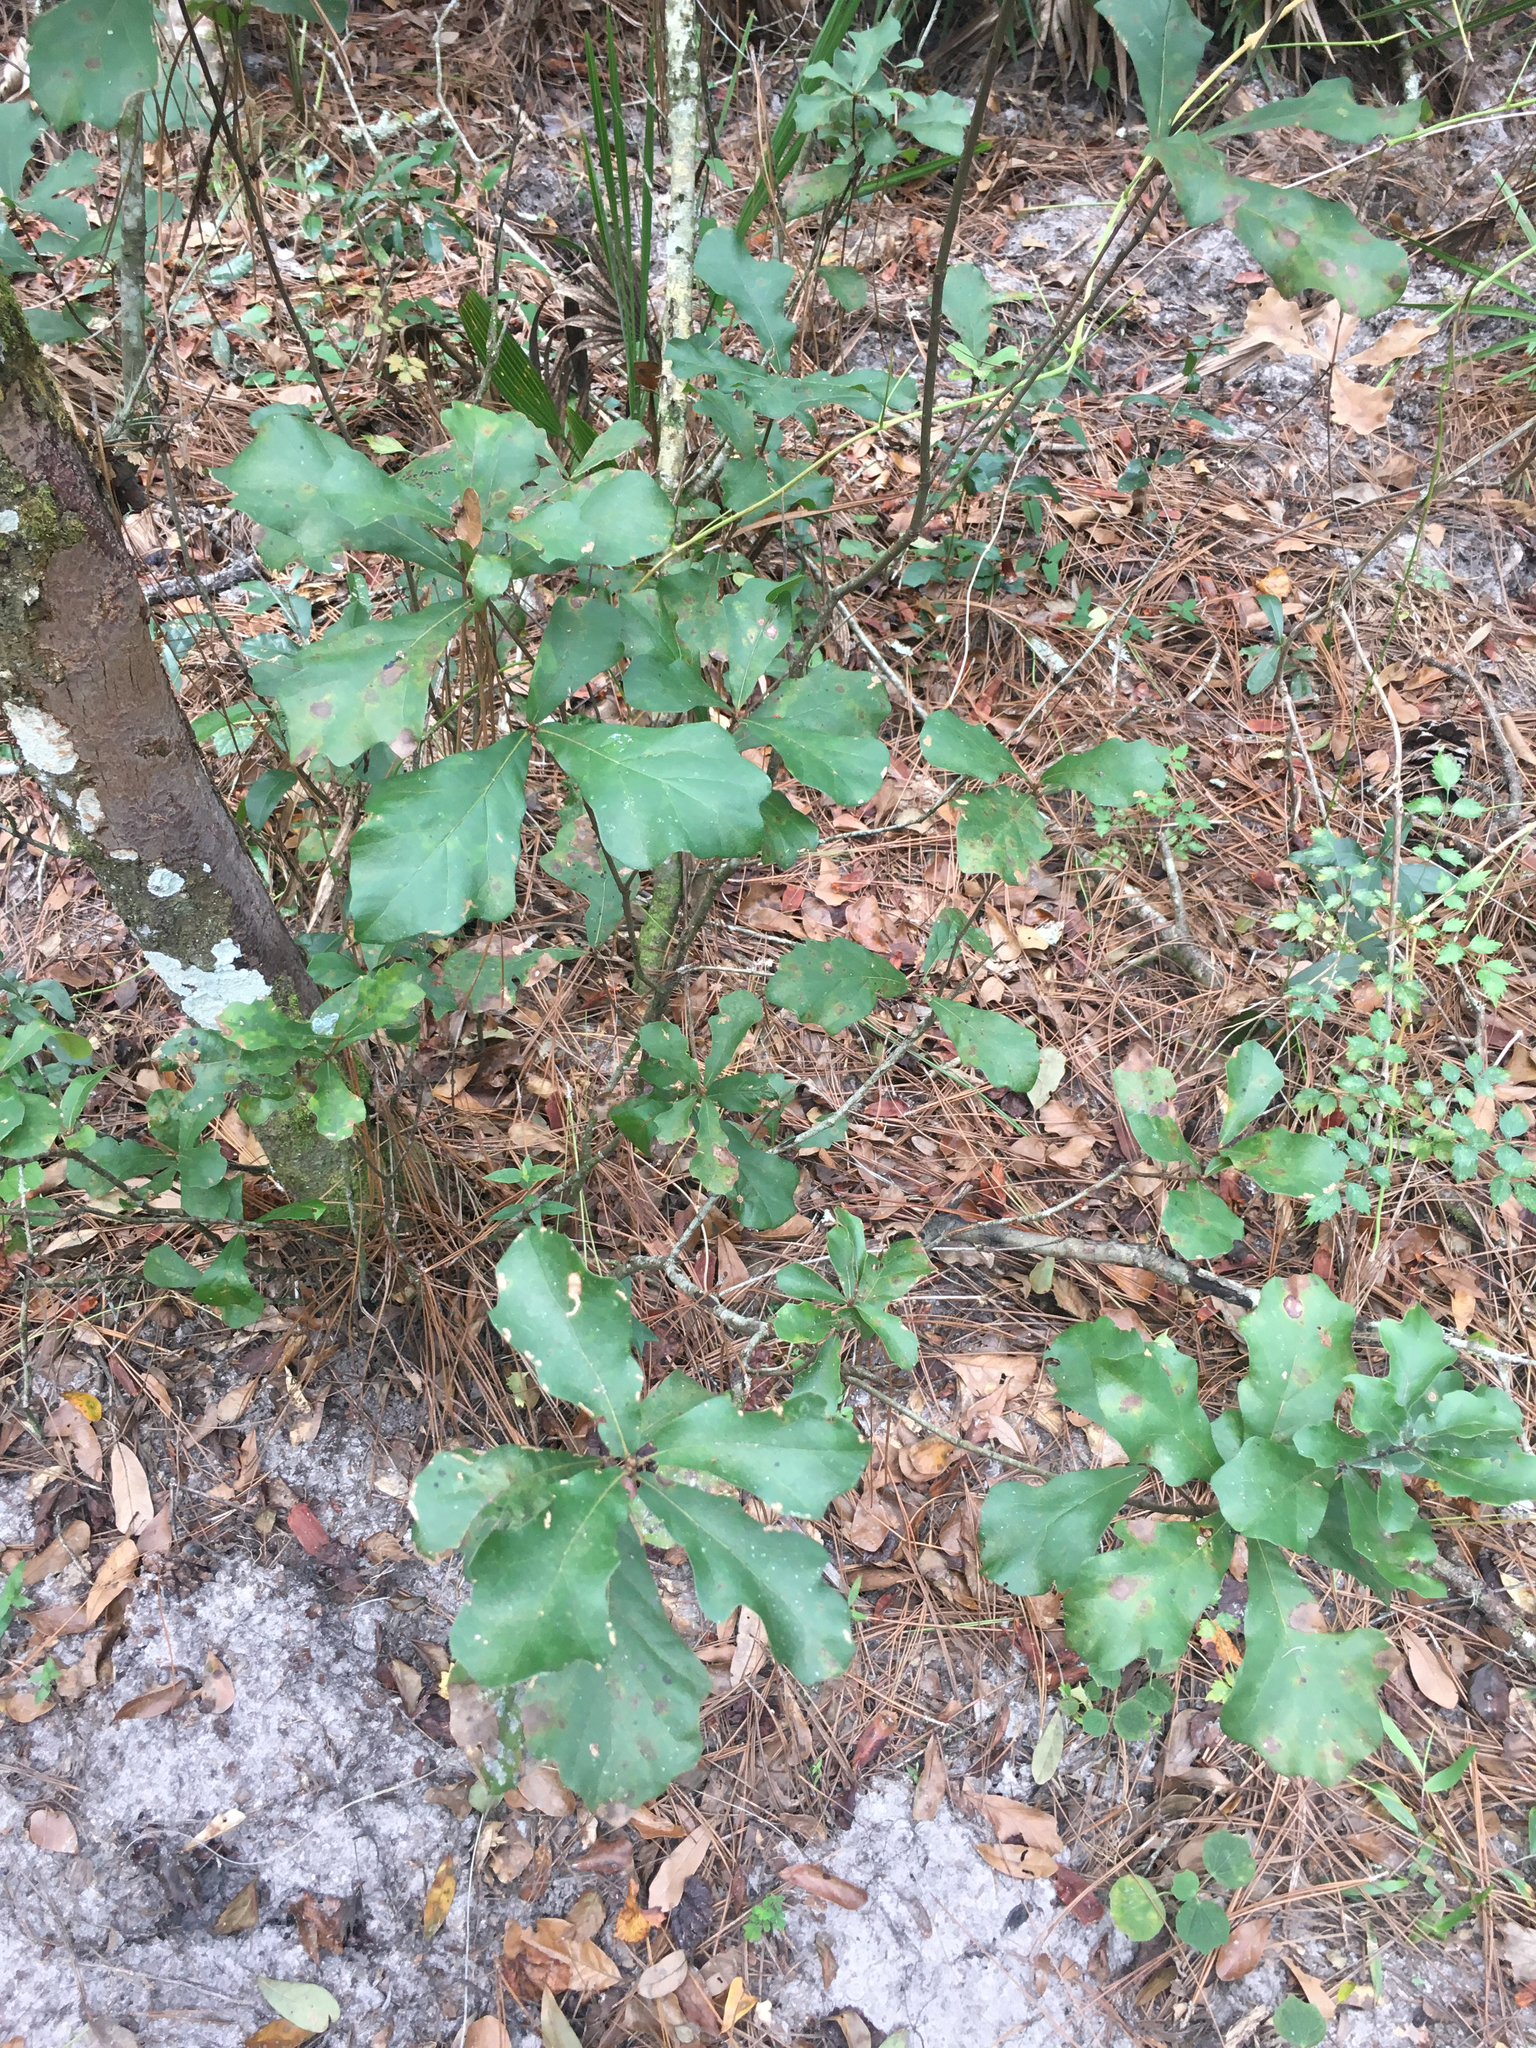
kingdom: Plantae
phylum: Tracheophyta
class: Magnoliopsida
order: Fagales
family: Fagaceae
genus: Quercus
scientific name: Quercus nigra
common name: Water oak
